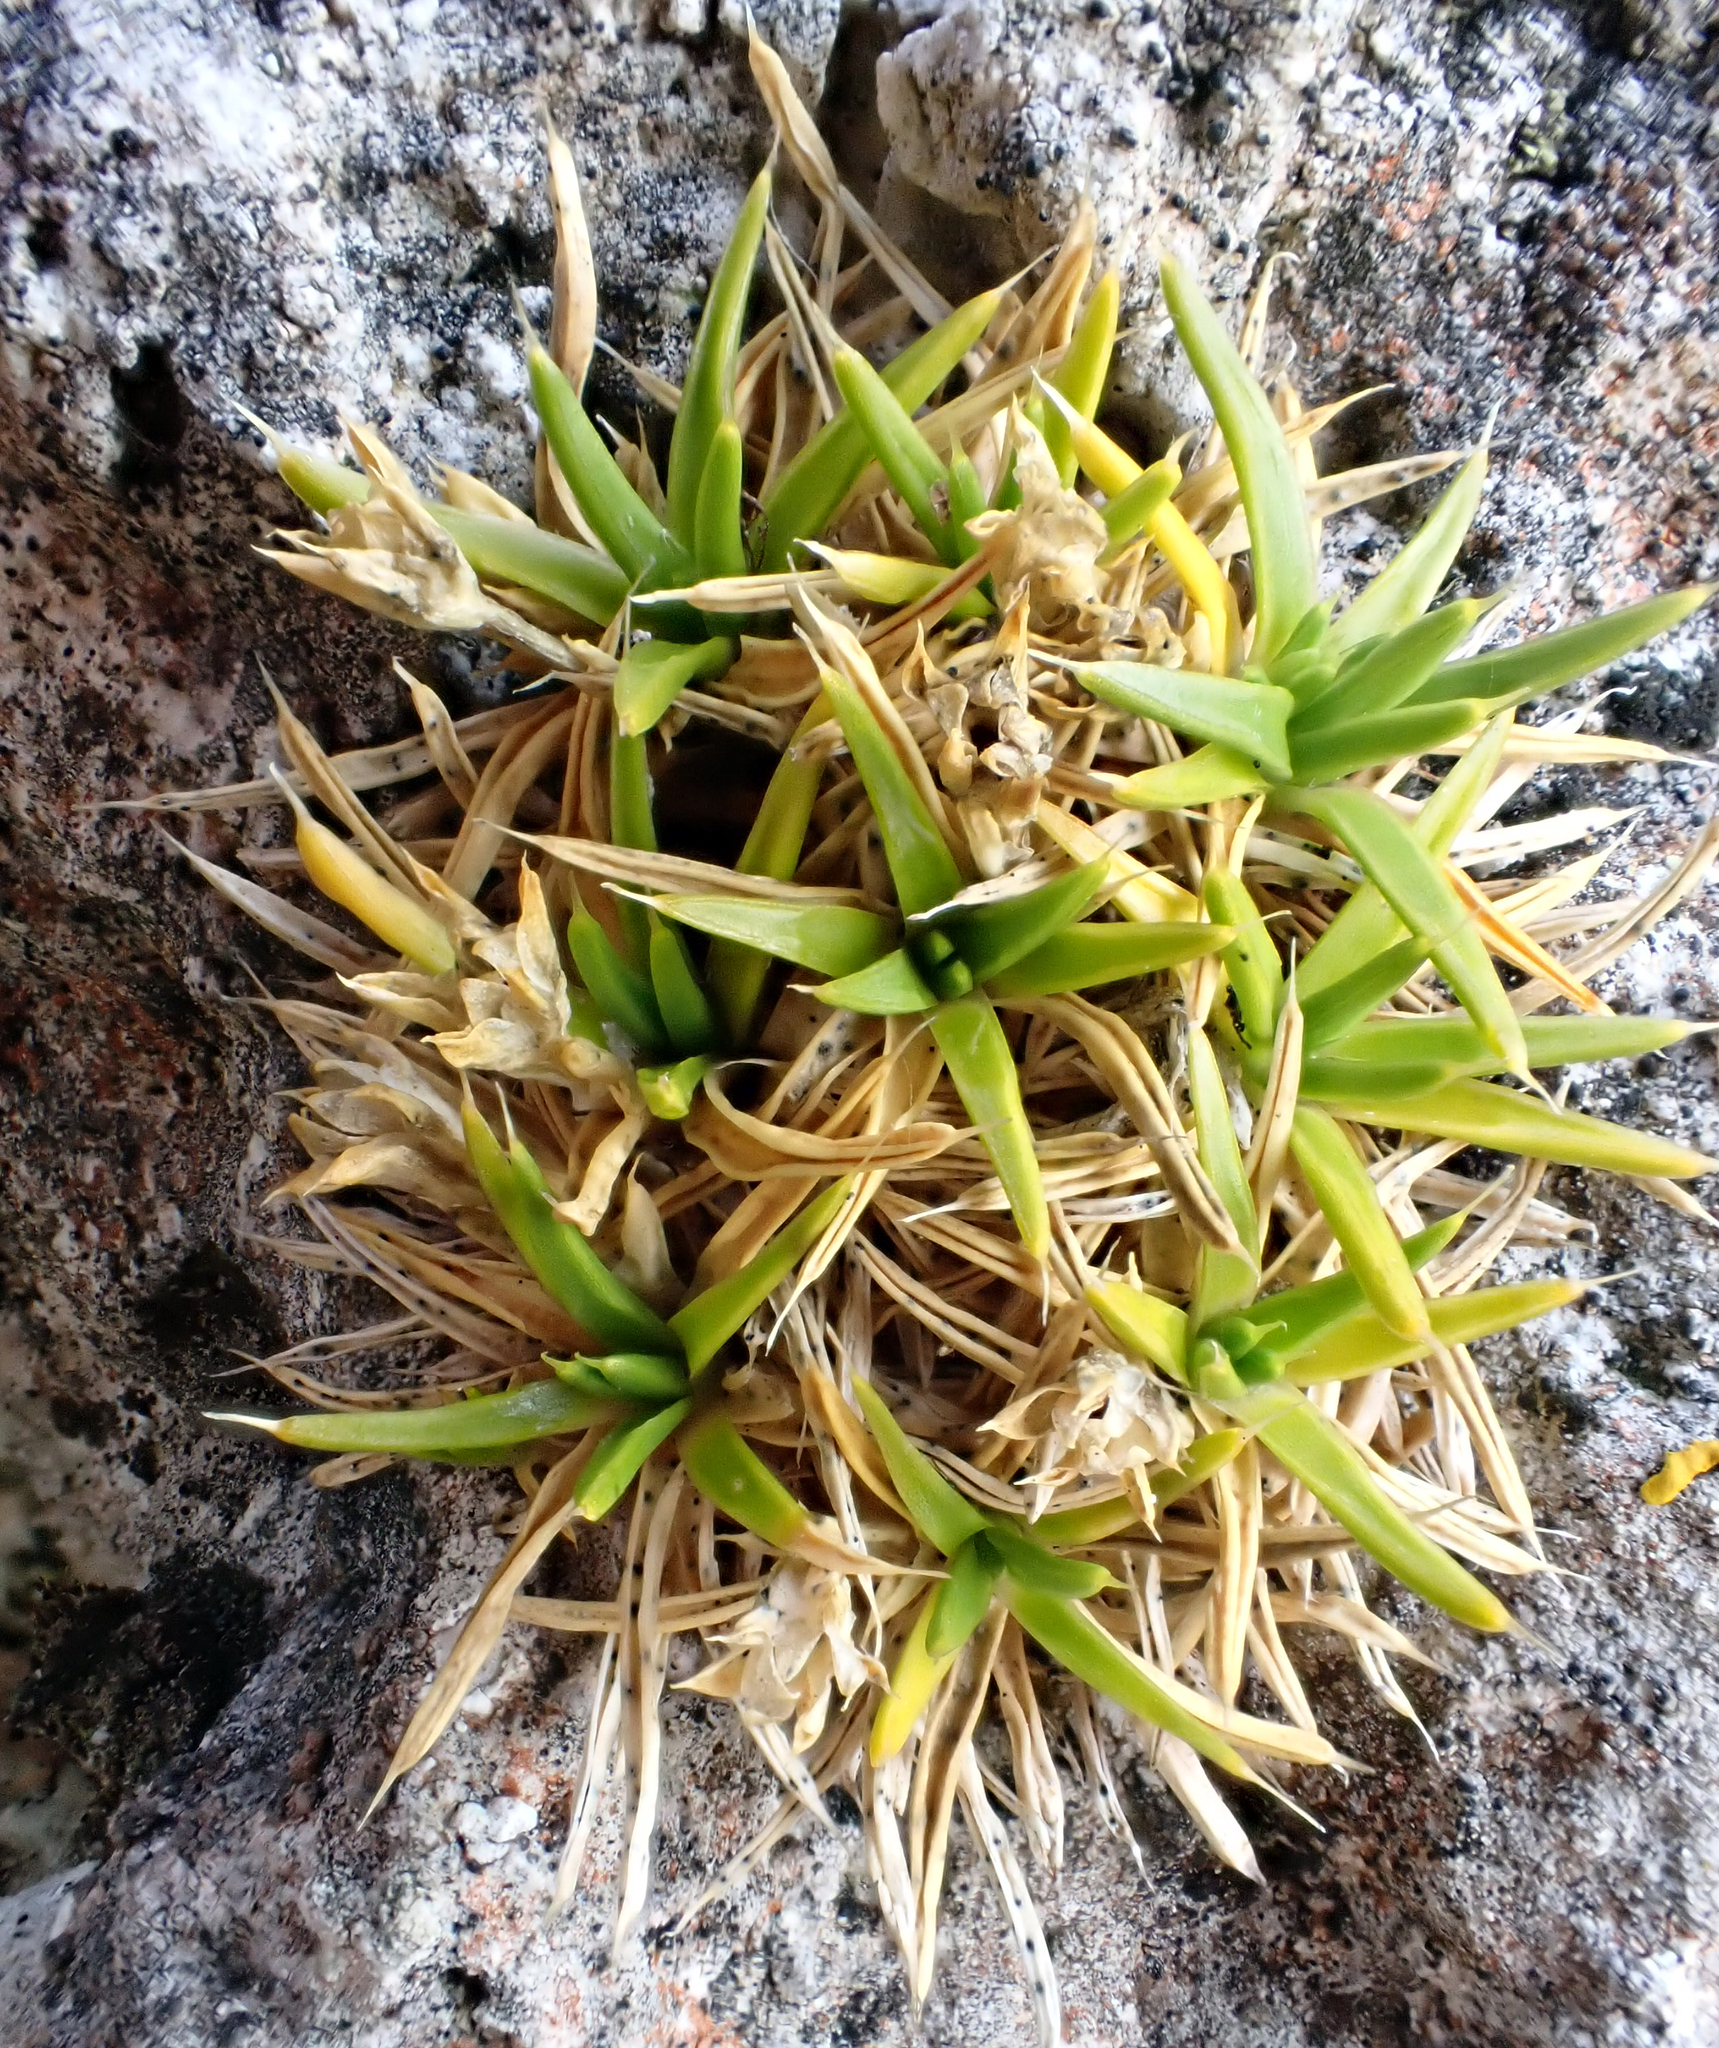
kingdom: Plantae
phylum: Tracheophyta
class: Magnoliopsida
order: Caryophyllales
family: Caryophyllaceae
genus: Colobanthus
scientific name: Colobanthus muelleri
